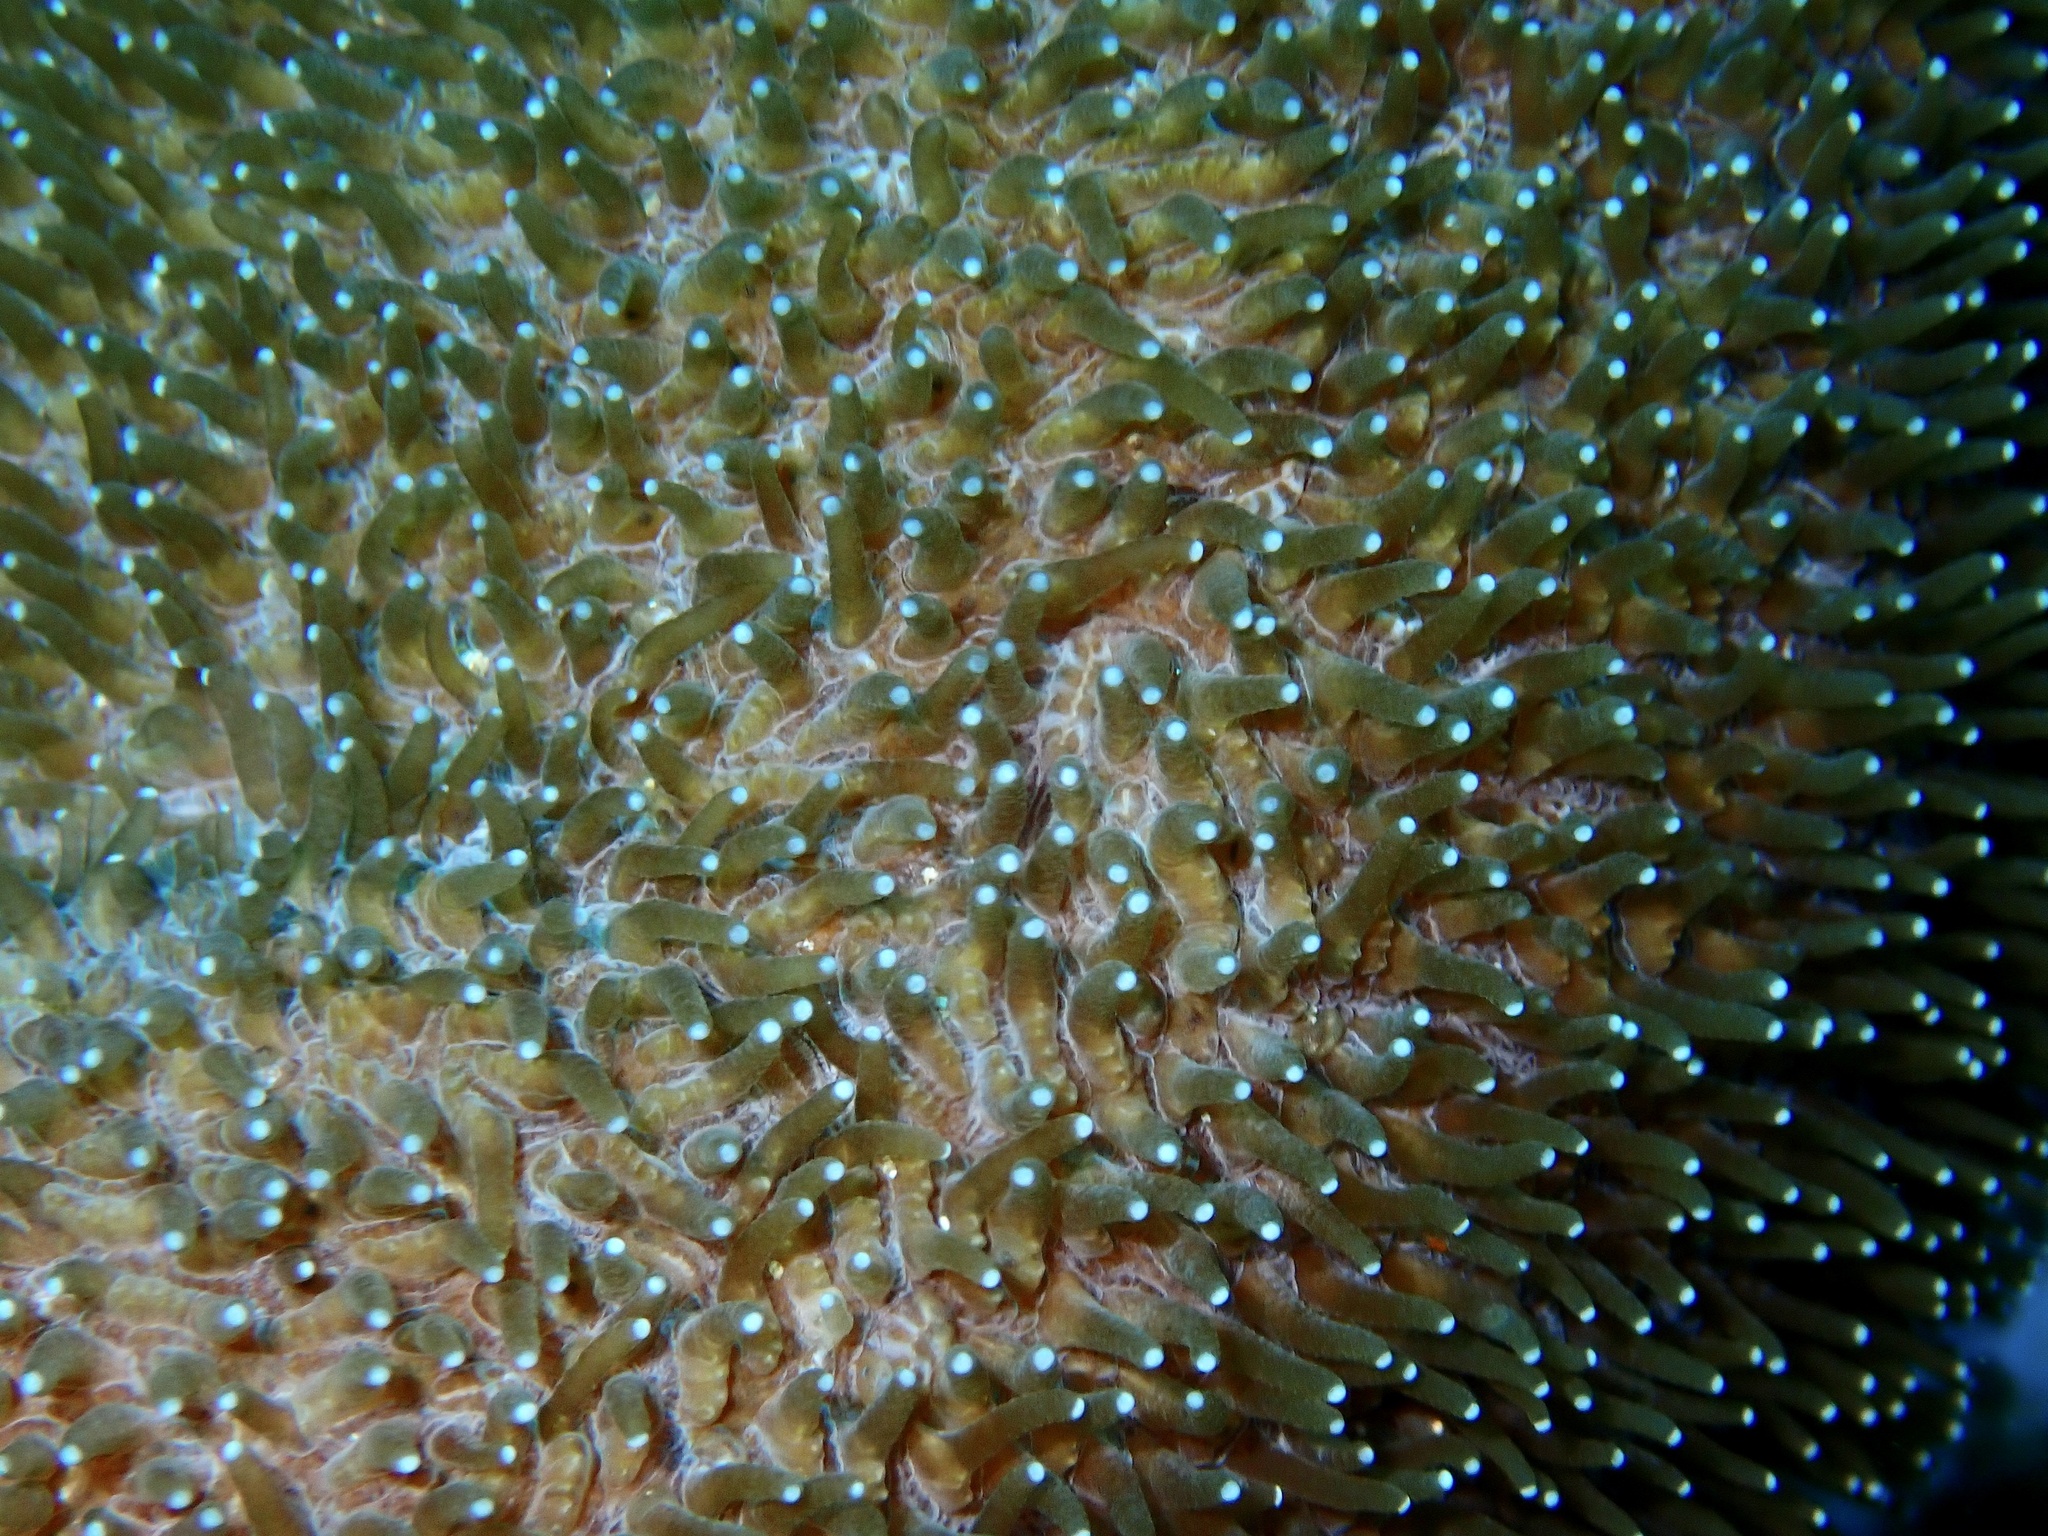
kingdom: Animalia
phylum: Cnidaria
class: Anthozoa
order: Scleractinia
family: Fungiidae
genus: Polyphyllia
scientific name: Polyphyllia talpina
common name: Joker's boomerang coral
